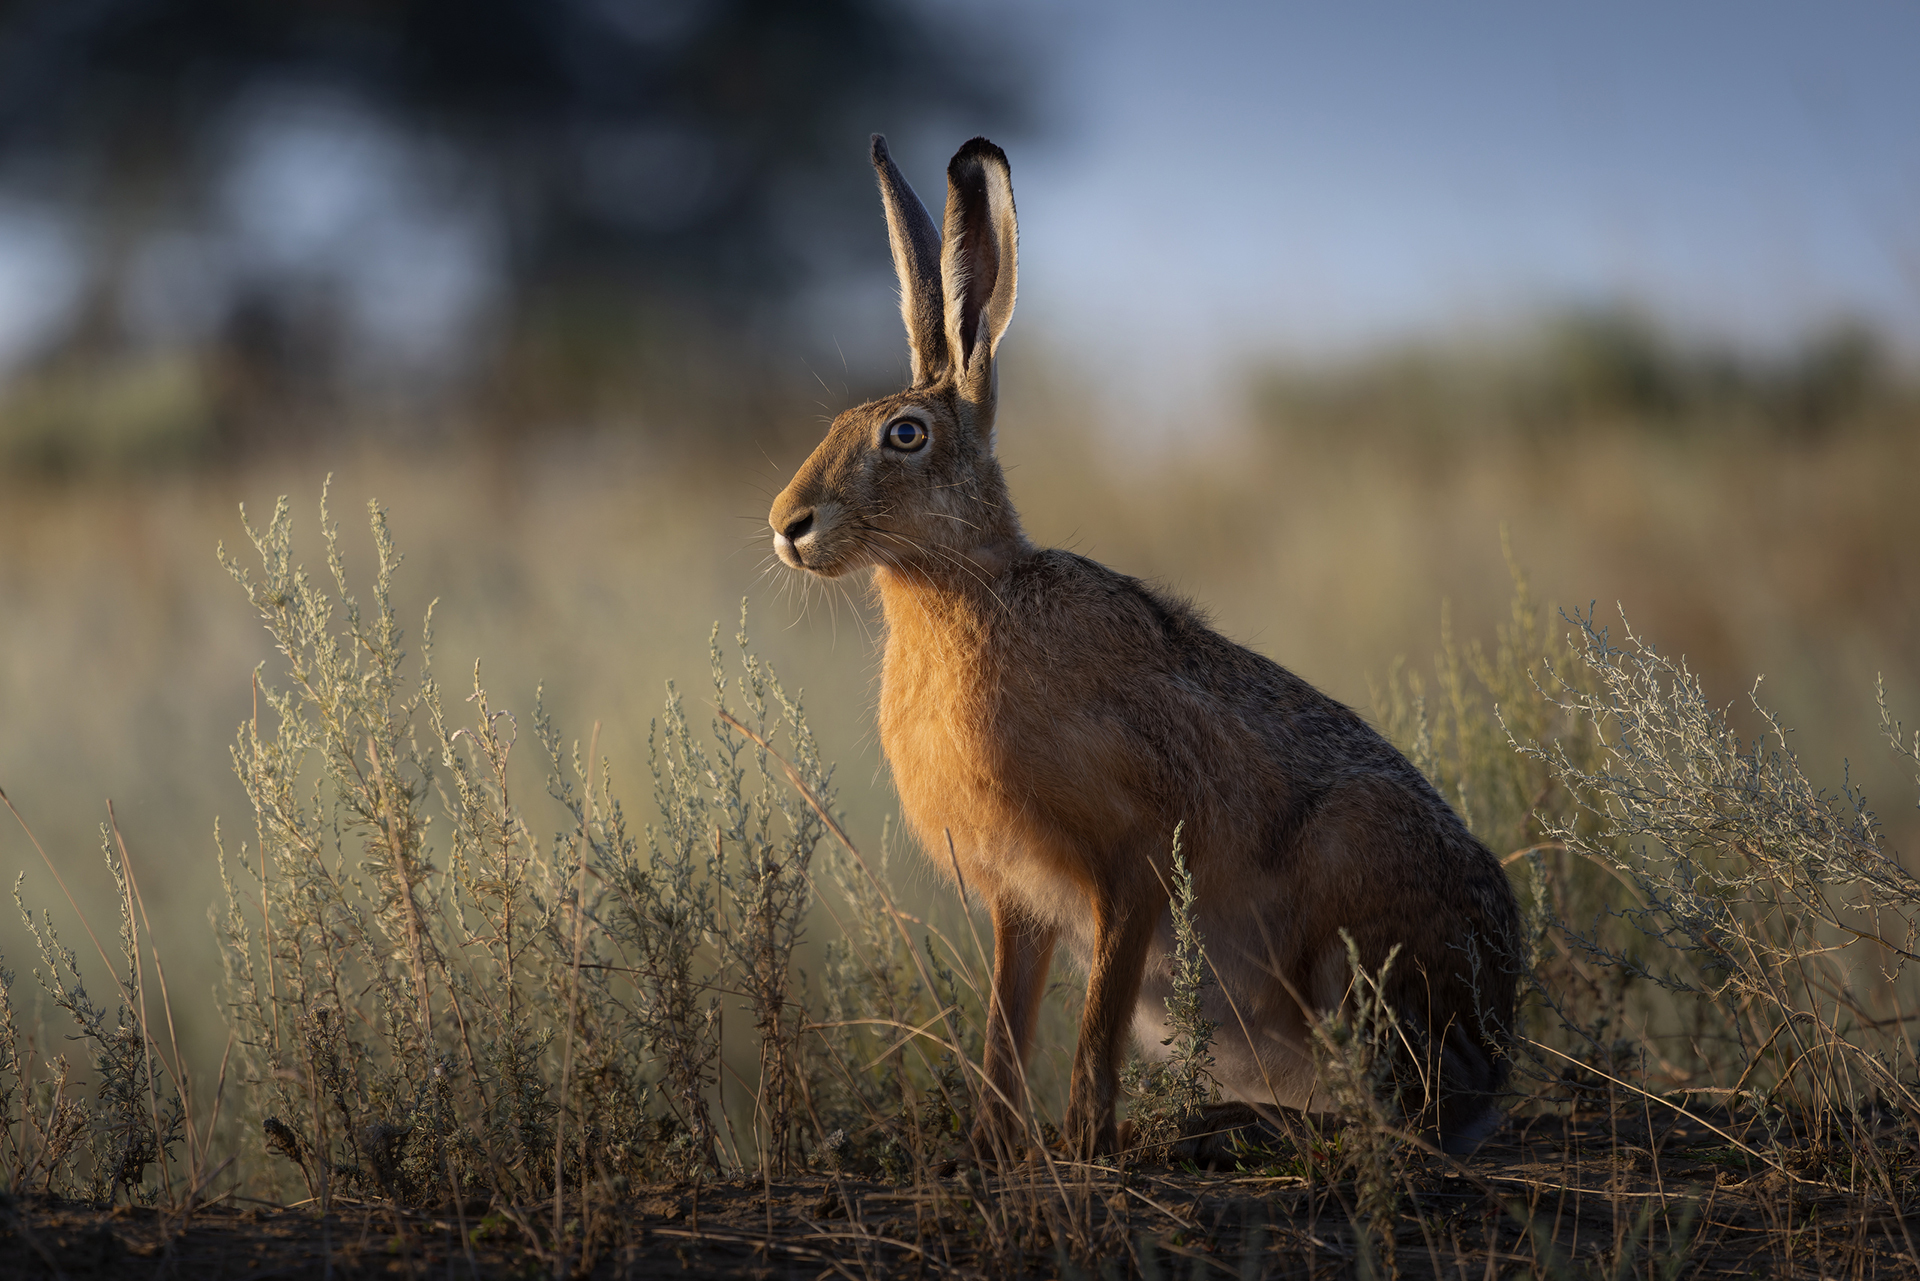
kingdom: Animalia
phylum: Chordata
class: Mammalia
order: Lagomorpha
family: Leporidae
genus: Lepus
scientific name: Lepus europaeus
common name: European hare
